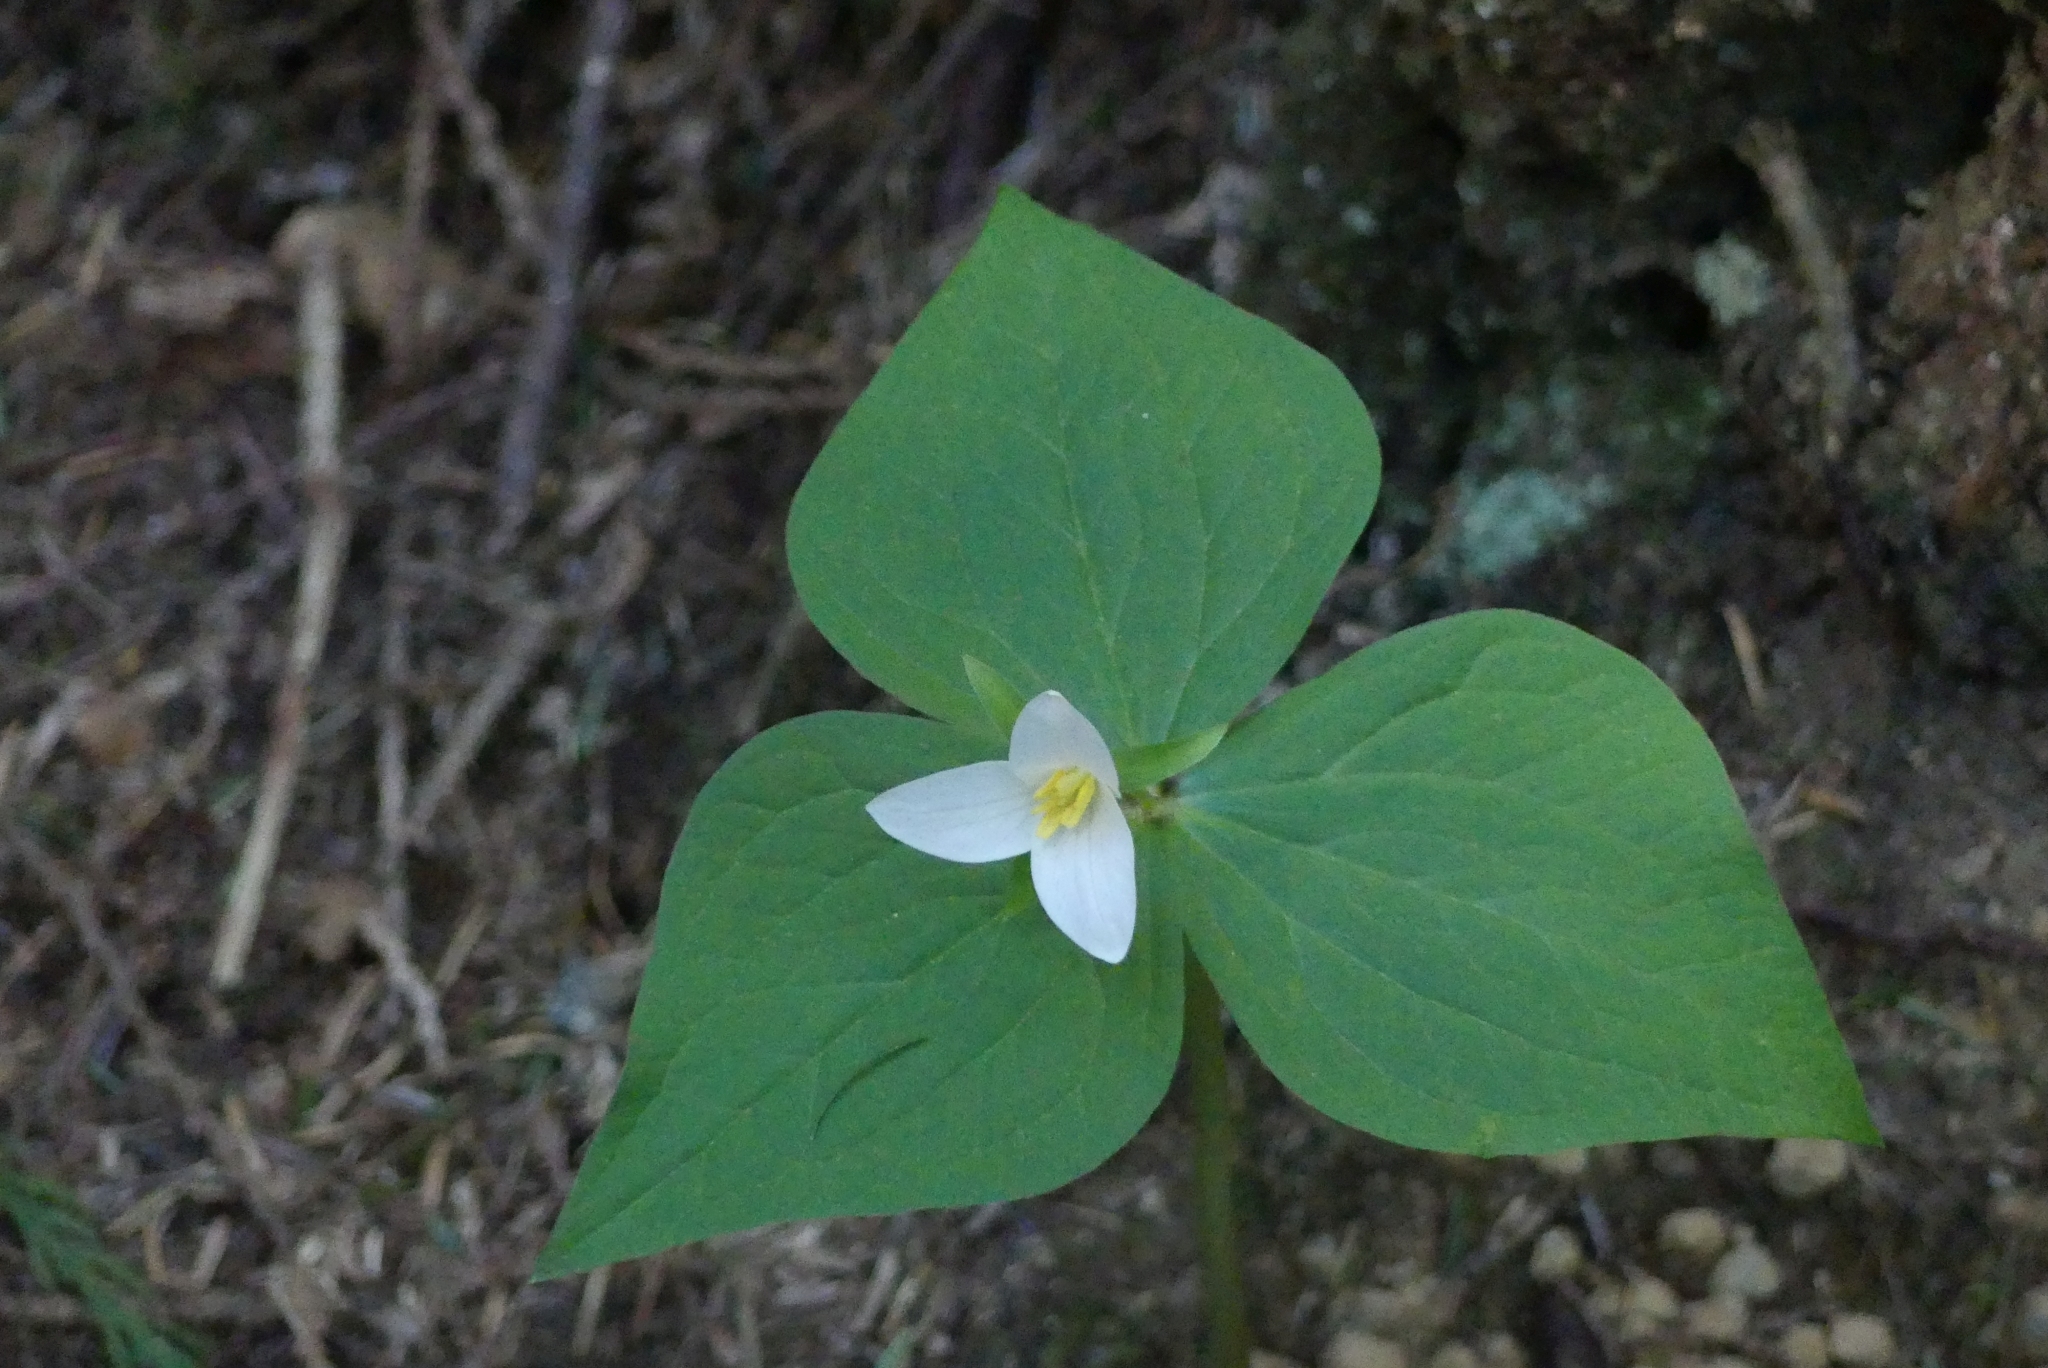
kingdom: Plantae
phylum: Tracheophyta
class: Liliopsida
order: Liliales
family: Melanthiaceae
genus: Trillium
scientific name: Trillium ovatum
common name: Pacific trillium
